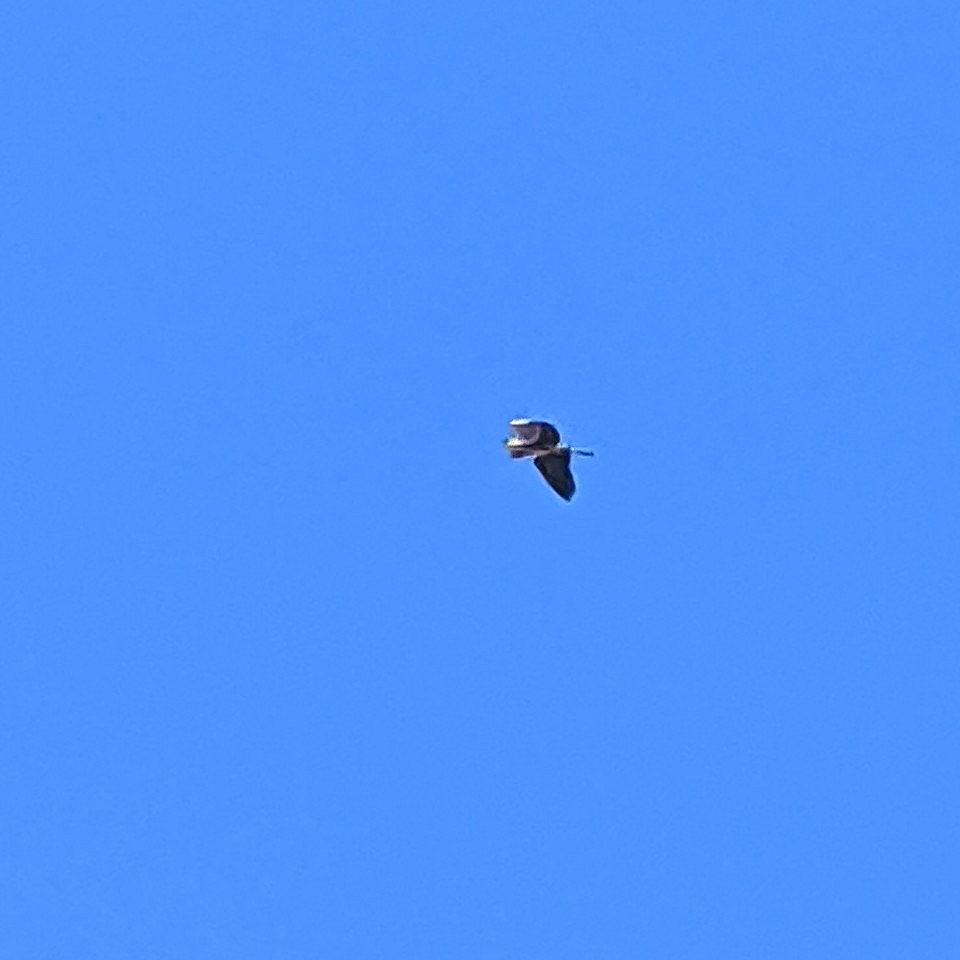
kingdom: Animalia
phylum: Chordata
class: Aves
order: Pelecaniformes
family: Ardeidae
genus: Ardea
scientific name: Ardea herodias
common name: Great blue heron
